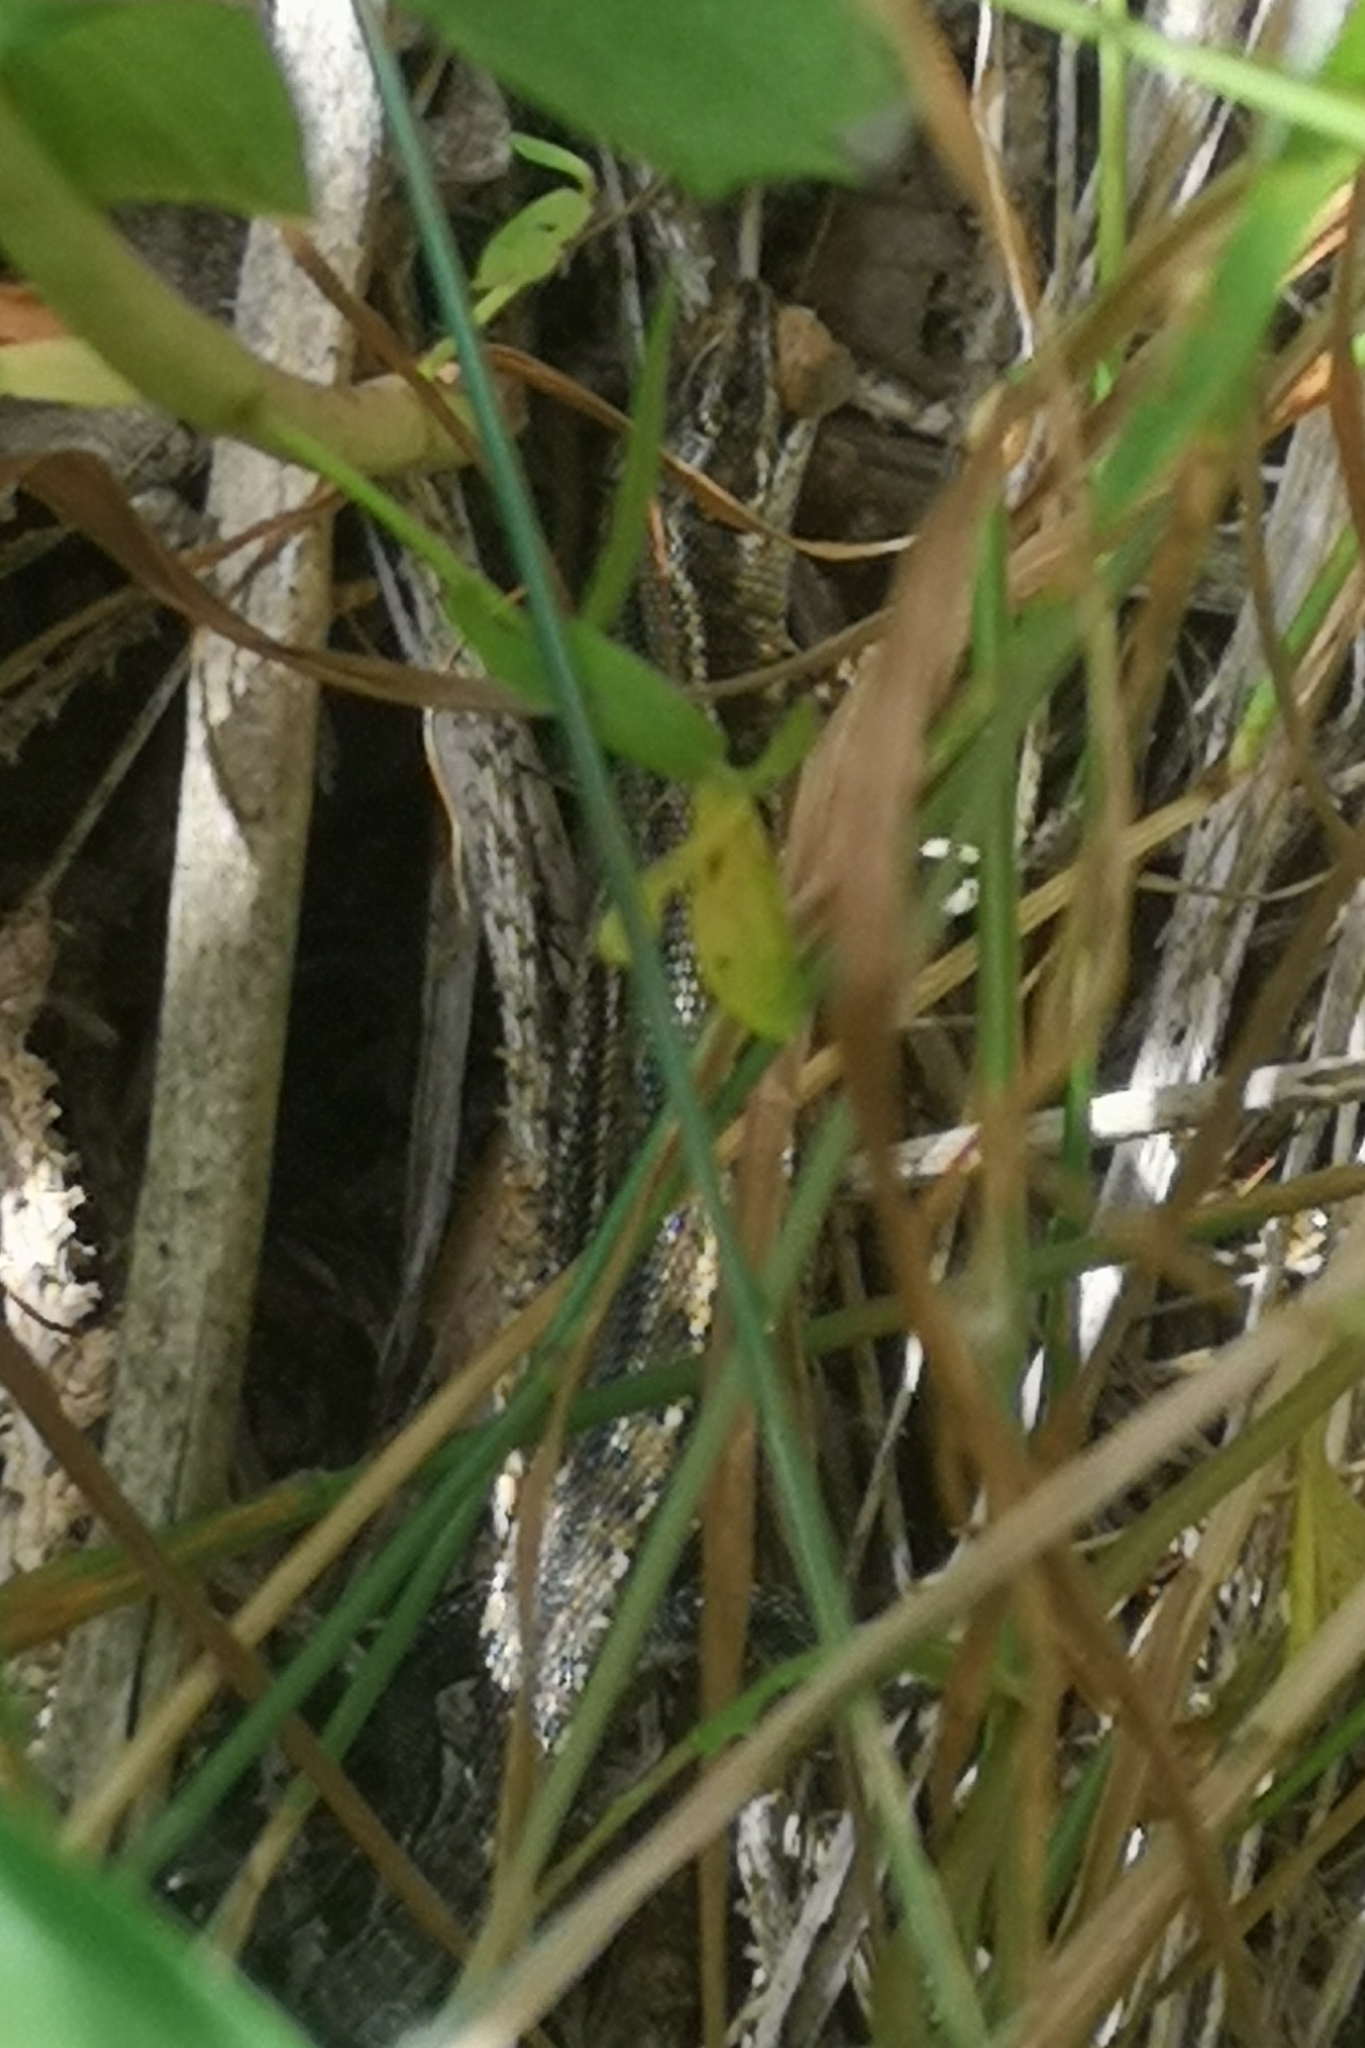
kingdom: Animalia
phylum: Chordata
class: Squamata
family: Lacertidae
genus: Zootoca
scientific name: Zootoca vivipara
